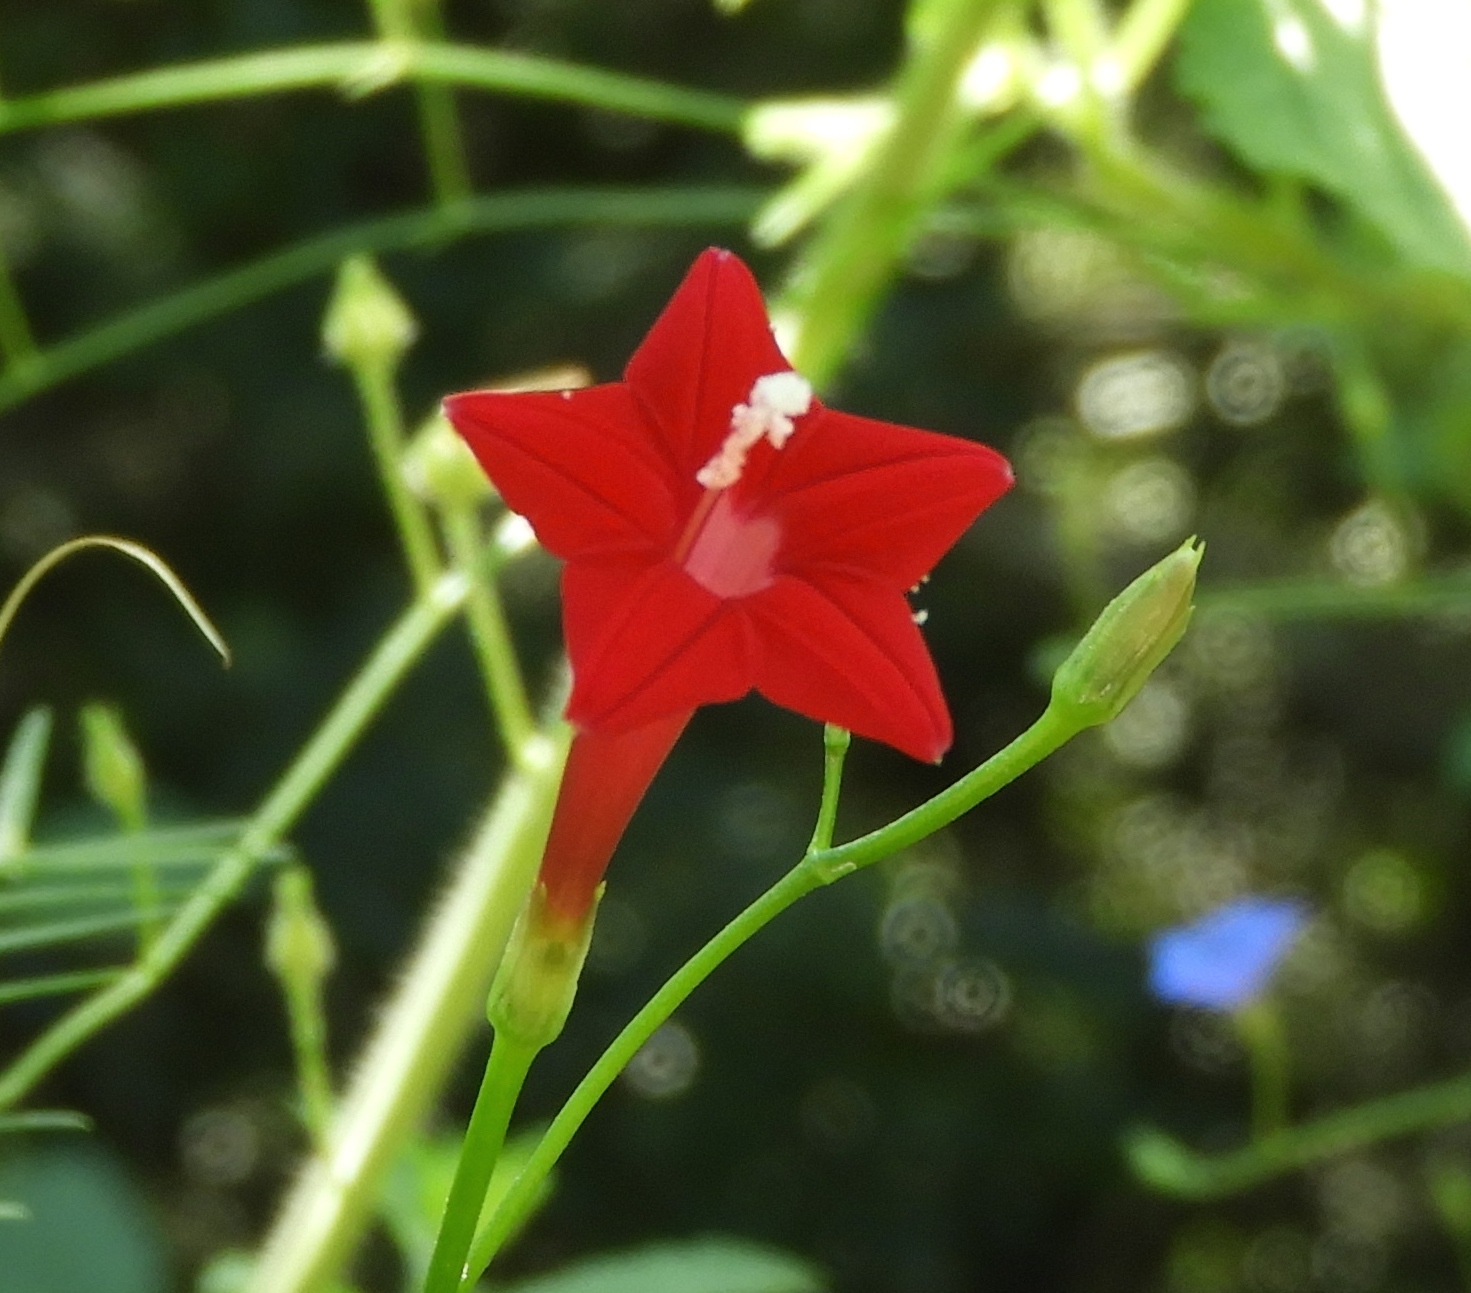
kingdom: Plantae
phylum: Tracheophyta
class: Magnoliopsida
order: Solanales
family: Convolvulaceae
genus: Ipomoea
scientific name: Ipomoea quamoclit
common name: Cypress vine
